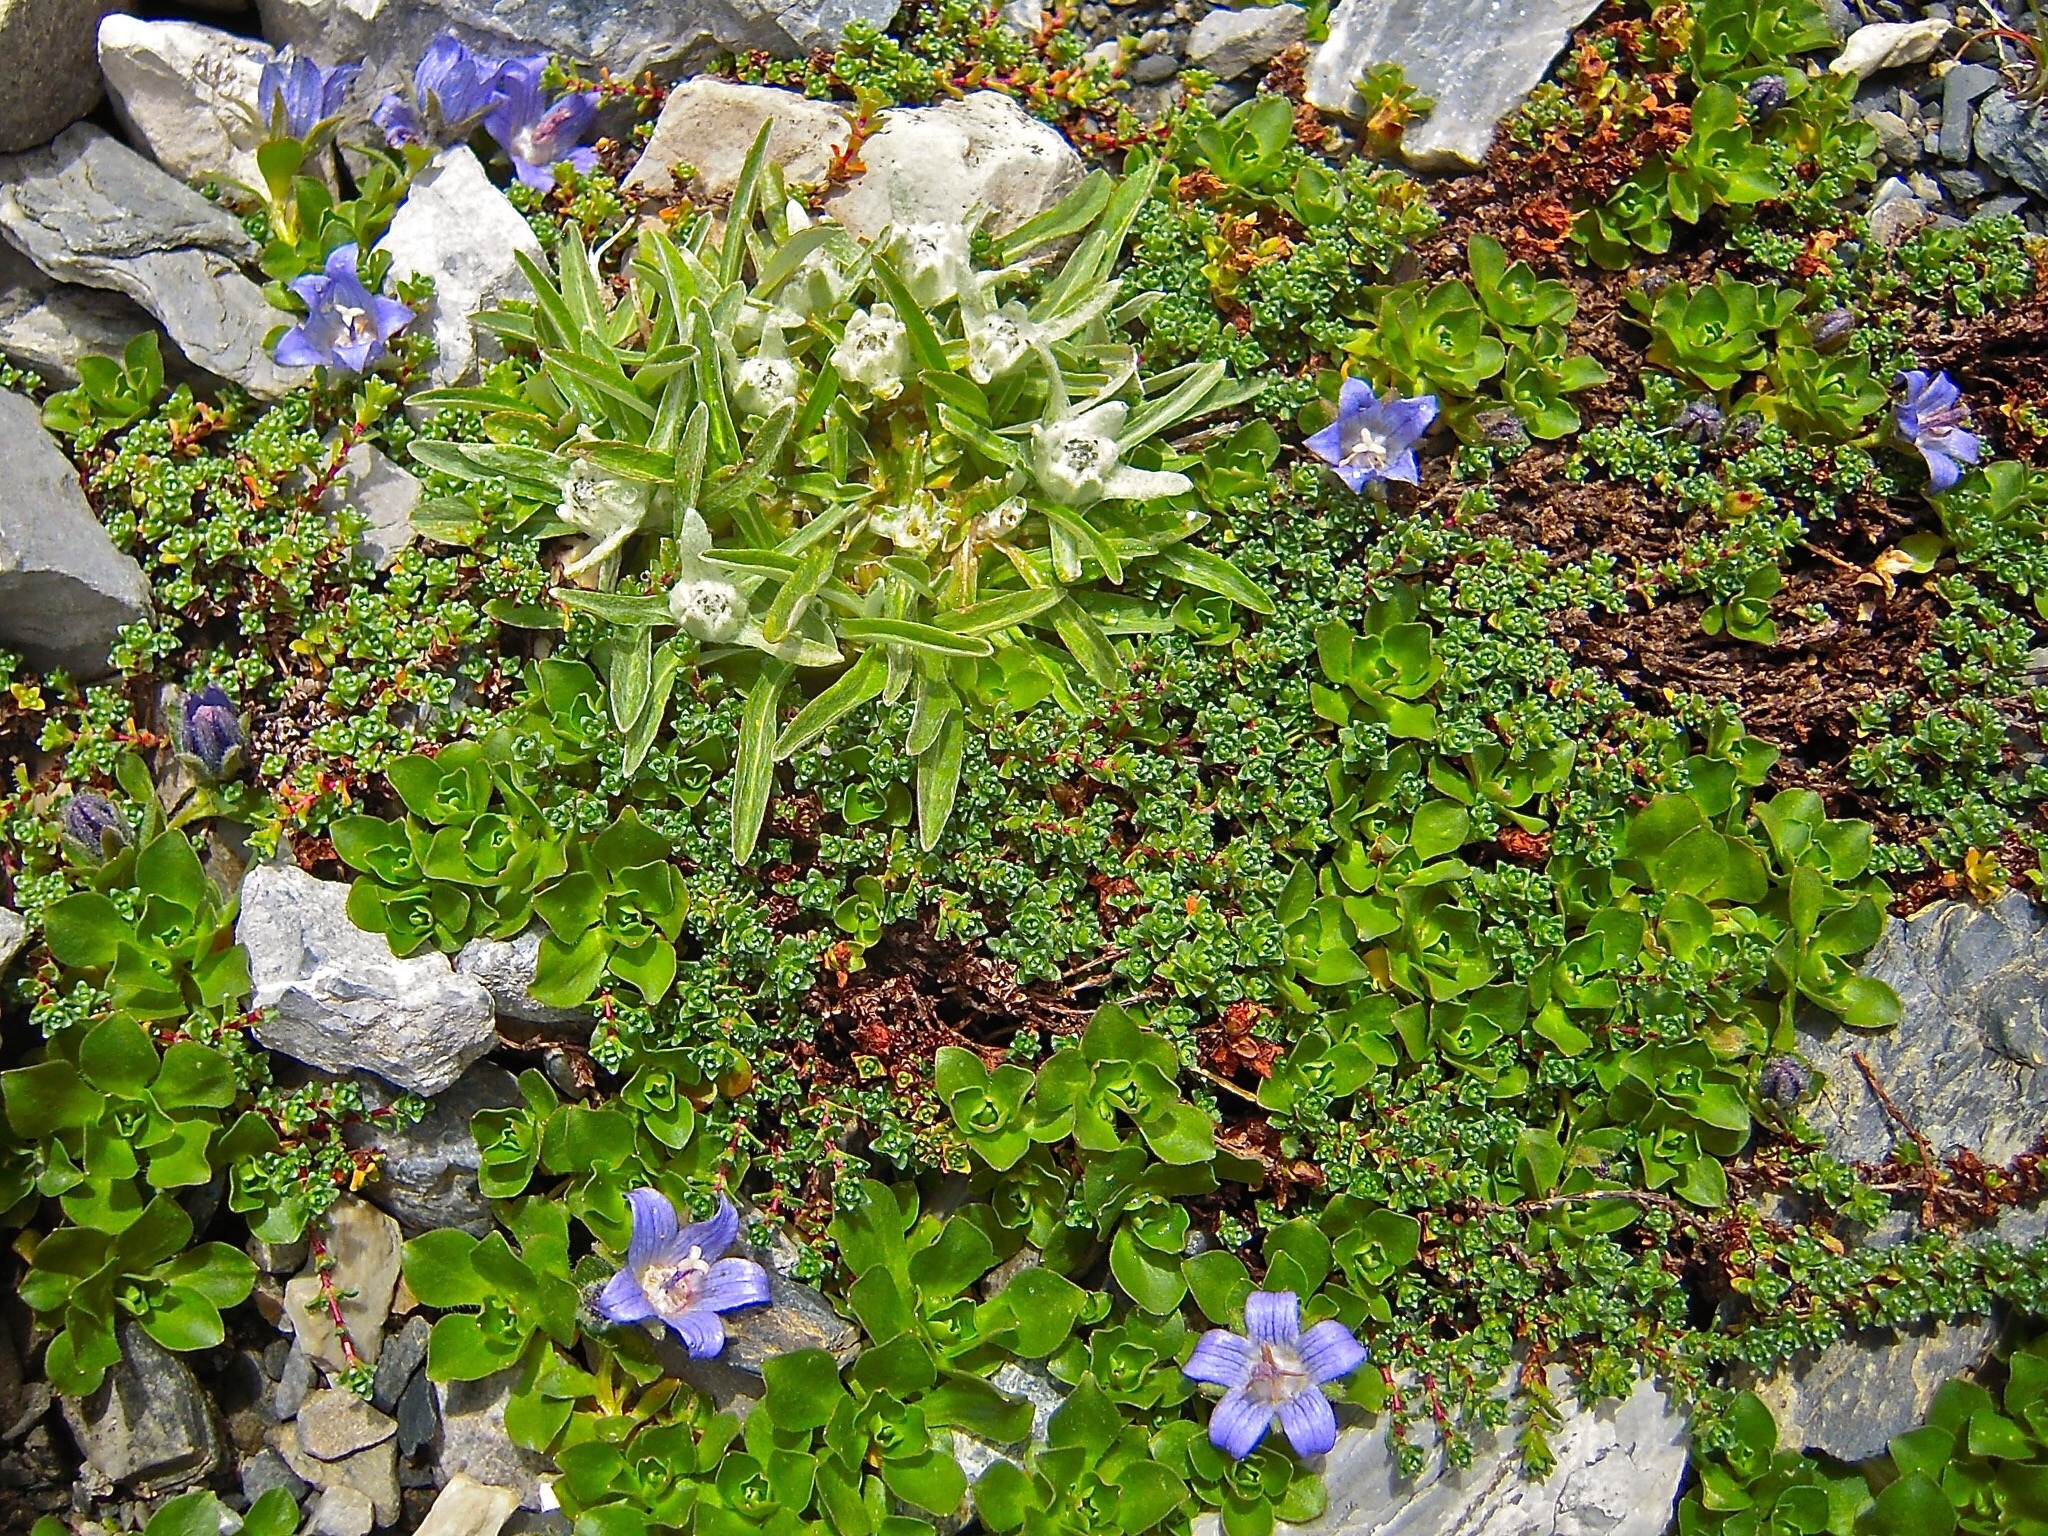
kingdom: Plantae
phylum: Tracheophyta
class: Magnoliopsida
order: Asterales
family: Campanulaceae
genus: Campanula
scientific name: Campanula cenisia
